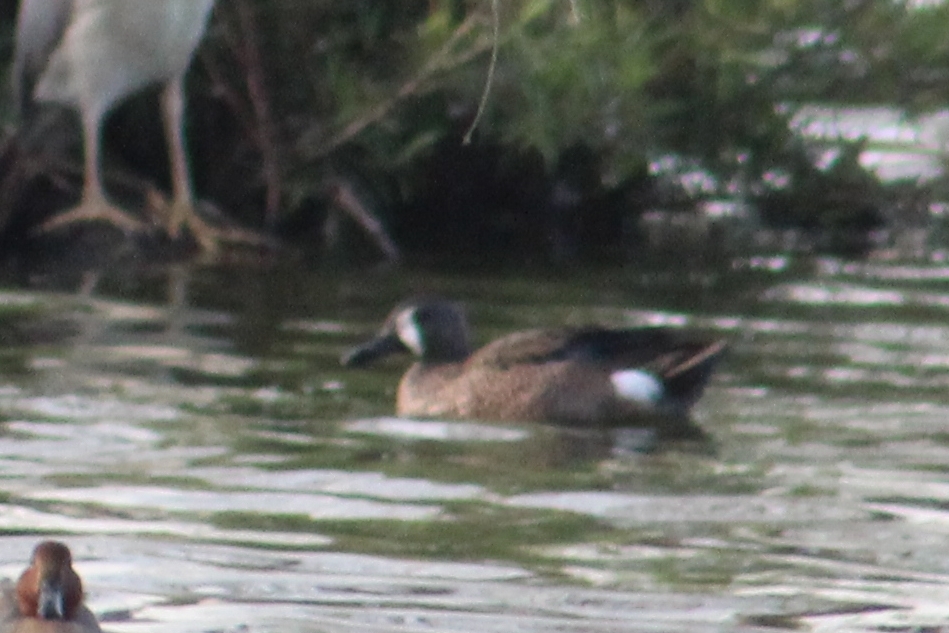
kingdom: Animalia
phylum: Chordata
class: Aves
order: Anseriformes
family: Anatidae
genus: Spatula
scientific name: Spatula discors
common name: Blue-winged teal
